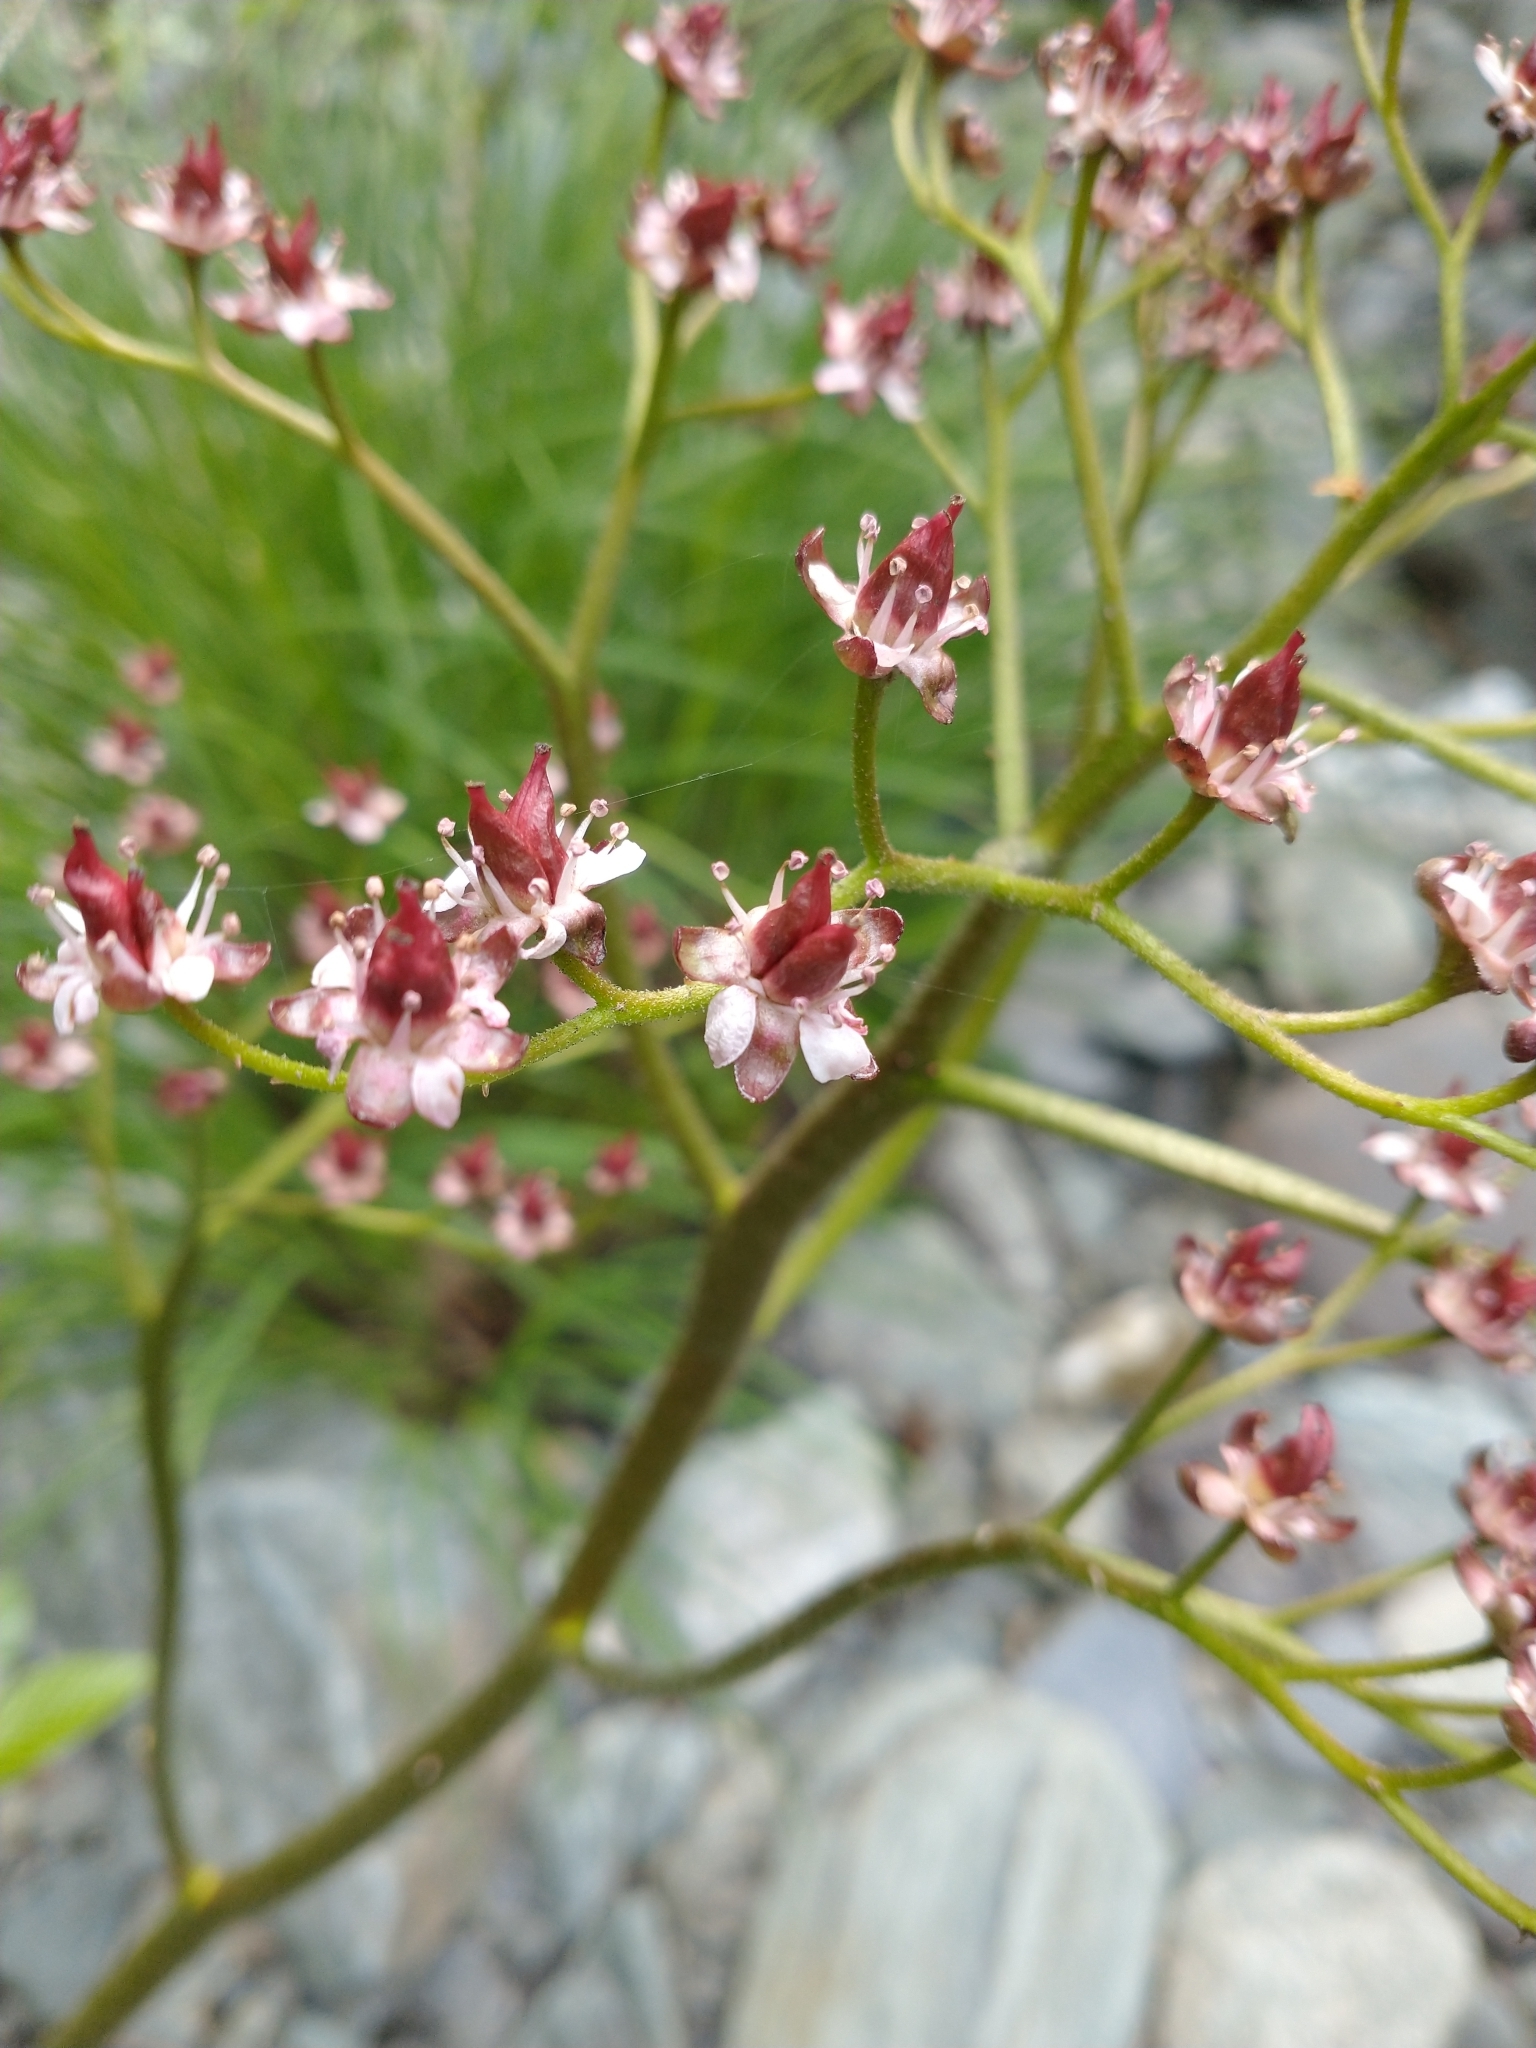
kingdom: Plantae
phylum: Tracheophyta
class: Magnoliopsida
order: Saxifragales
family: Saxifragaceae
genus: Darmera
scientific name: Darmera peltata
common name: Indian-rhubarb
